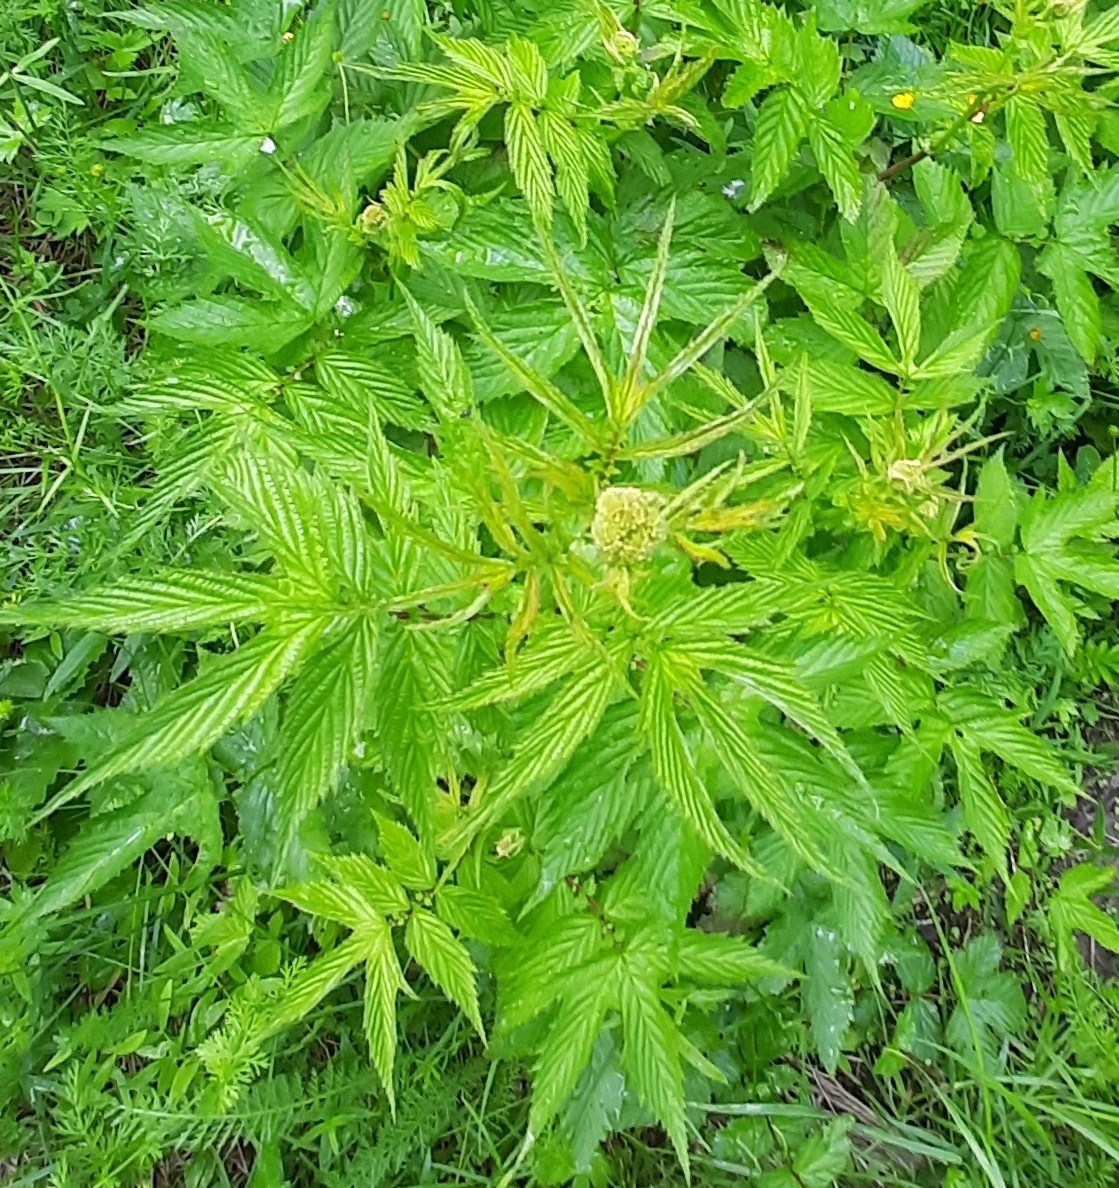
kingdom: Plantae
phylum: Tracheophyta
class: Magnoliopsida
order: Rosales
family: Rosaceae
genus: Filipendula
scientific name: Filipendula ulmaria
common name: Meadowsweet
